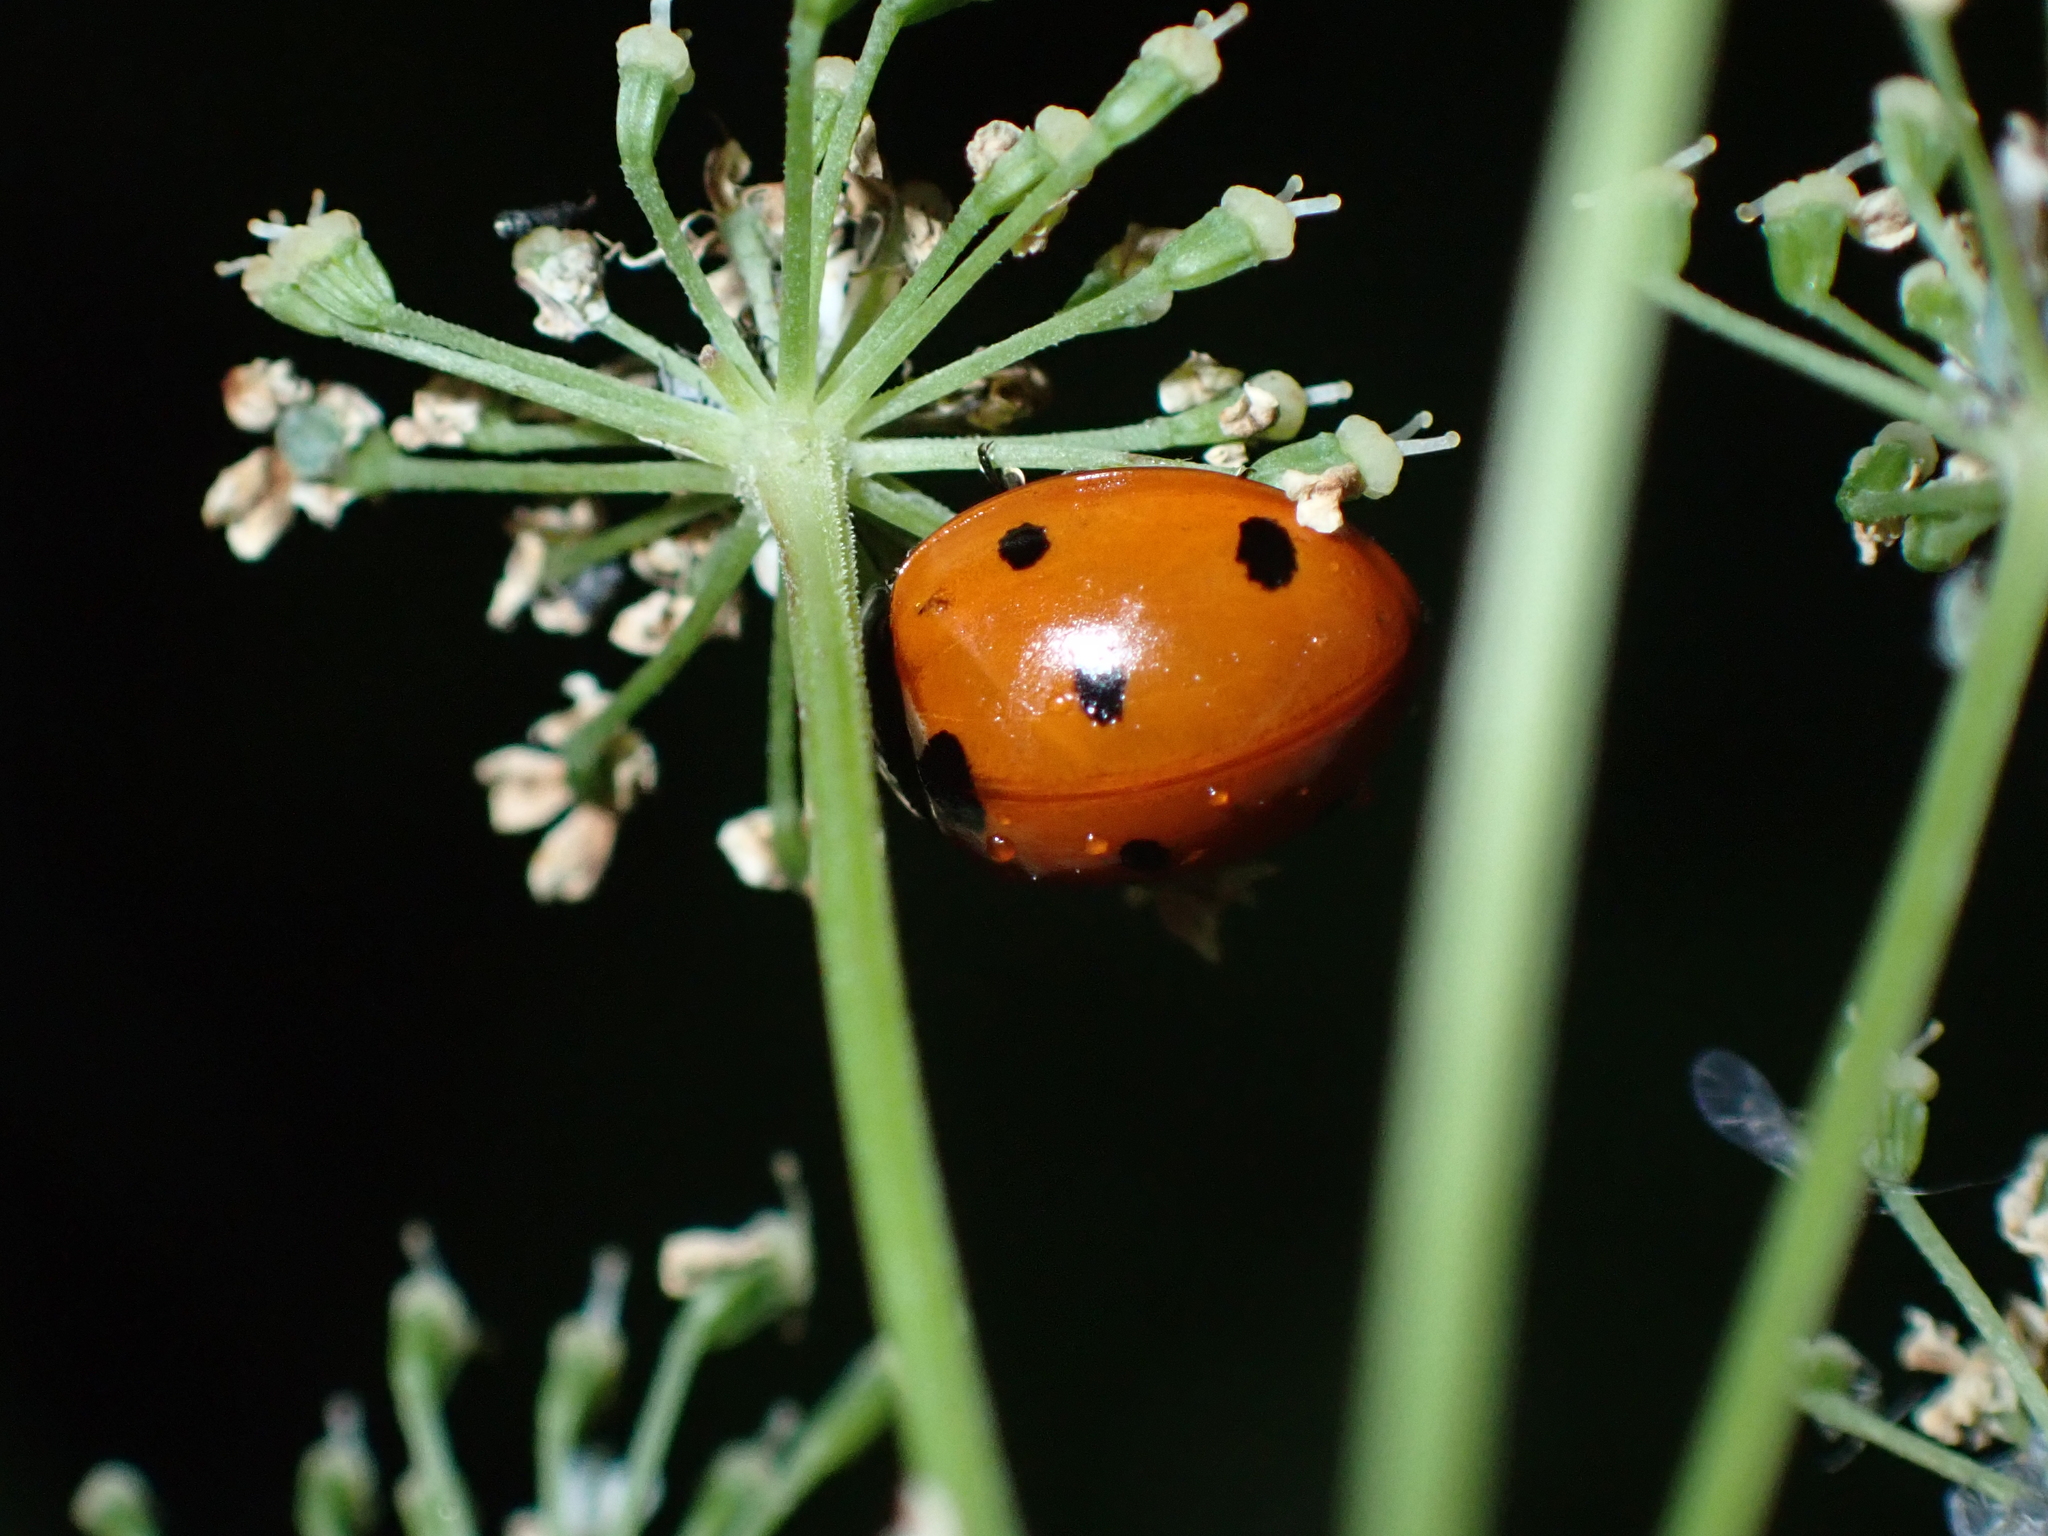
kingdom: Animalia
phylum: Arthropoda
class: Insecta
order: Coleoptera
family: Coccinellidae
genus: Coccinella
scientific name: Coccinella septempunctata
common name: Sevenspotted lady beetle
